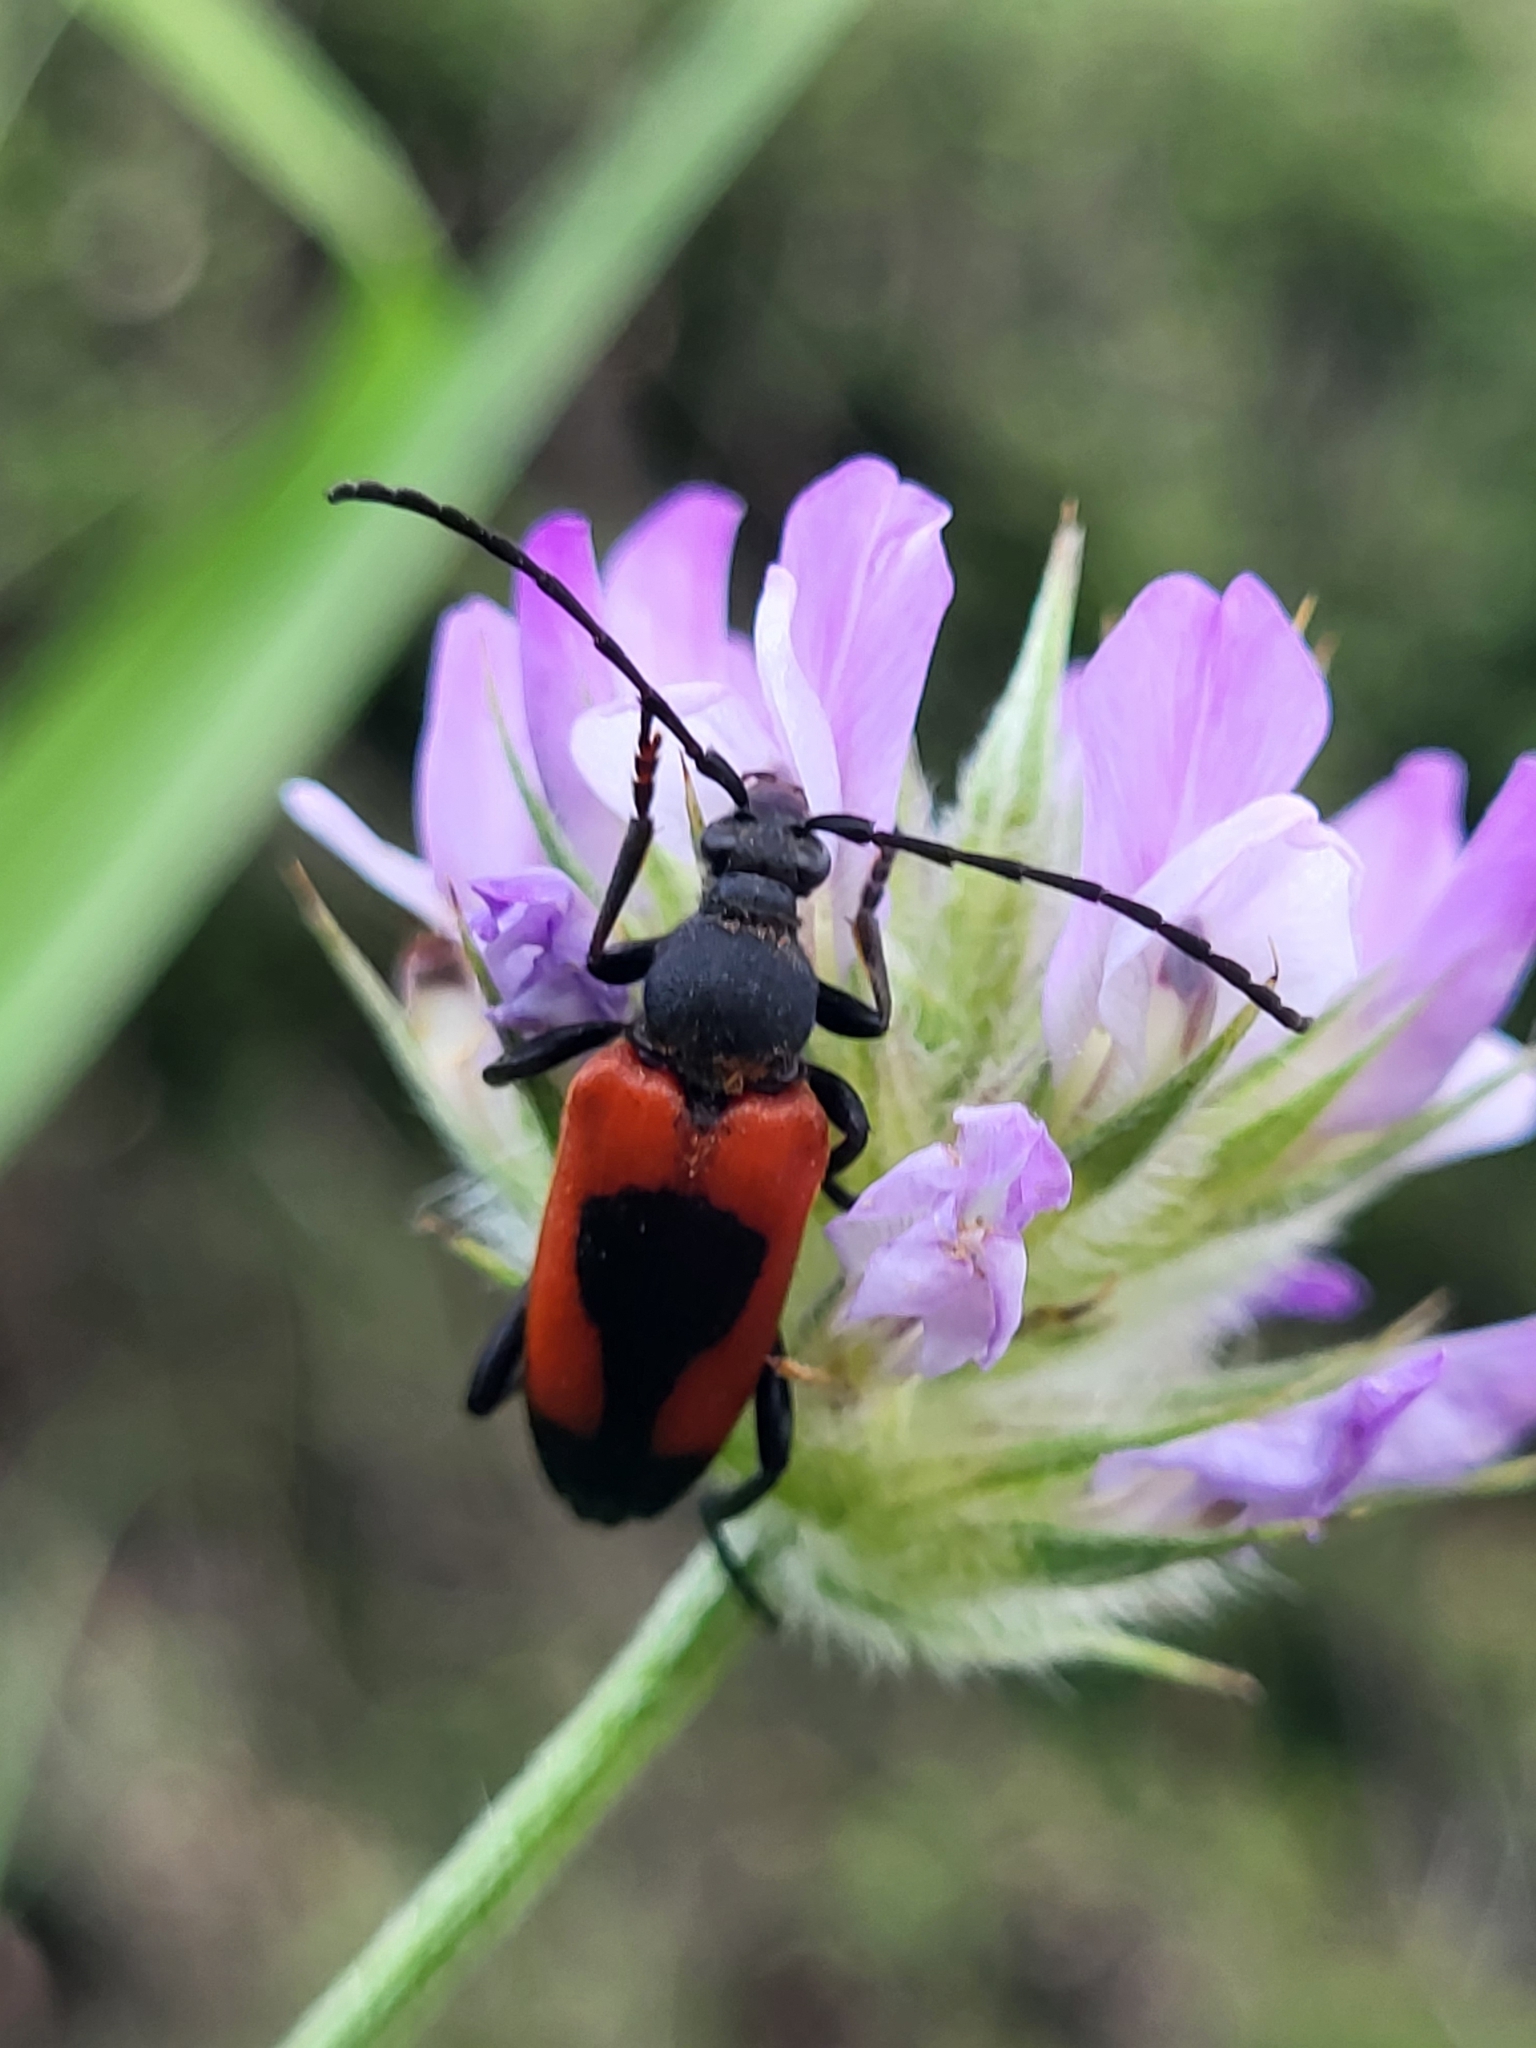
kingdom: Animalia
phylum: Arthropoda
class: Insecta
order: Coleoptera
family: Cerambycidae
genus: Stictoleptura
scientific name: Stictoleptura cordigera
